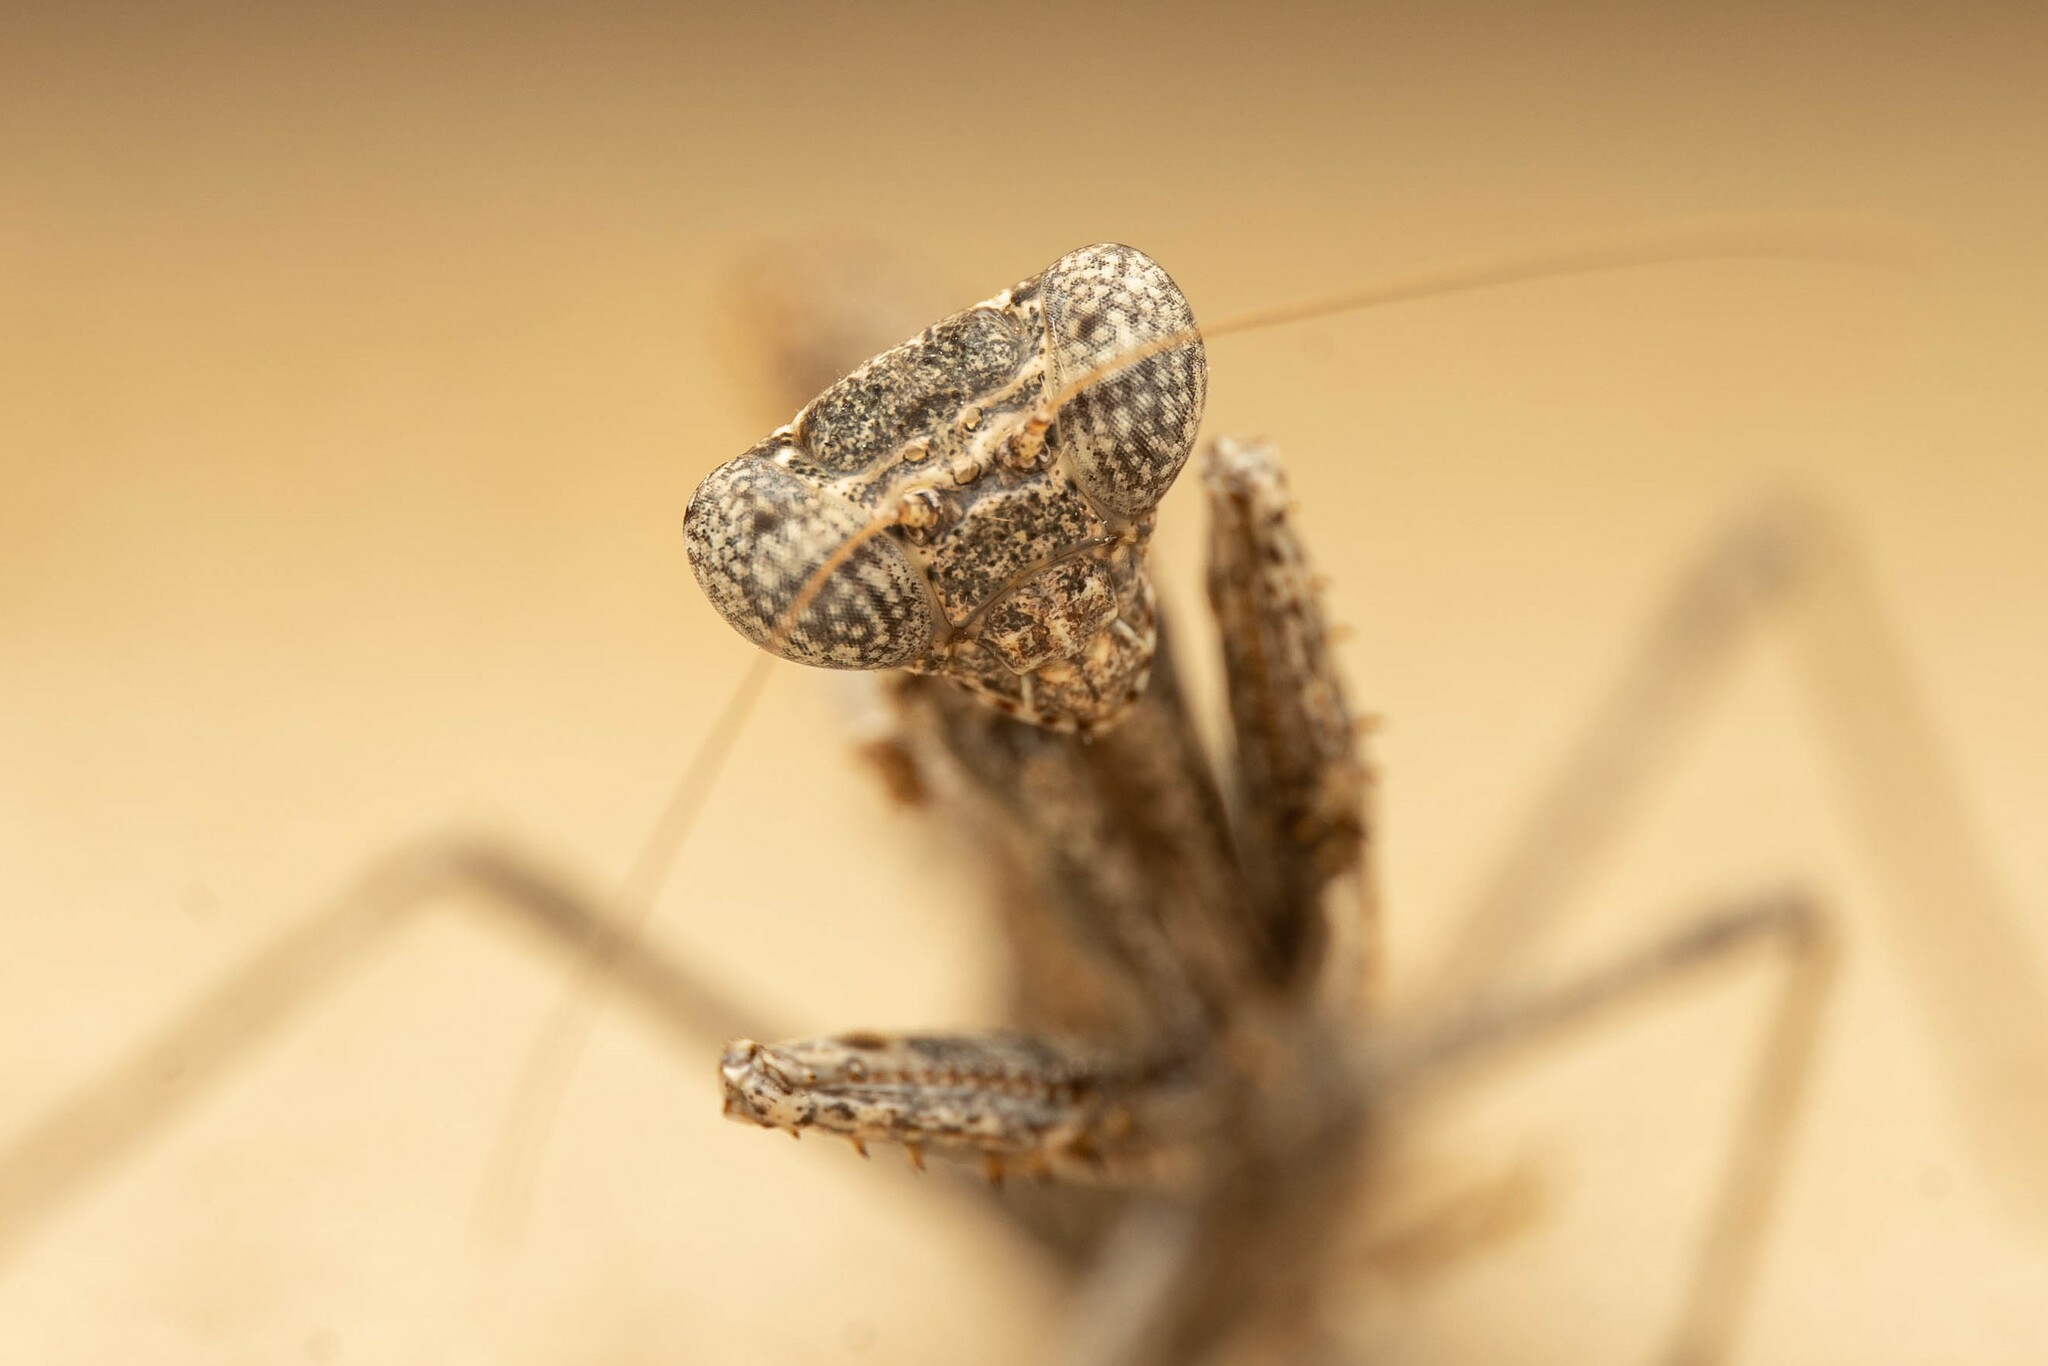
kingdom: Animalia
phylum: Arthropoda
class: Insecta
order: Mantodea
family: Amelidae
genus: Litaneutria
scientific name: Litaneutria ocularis
